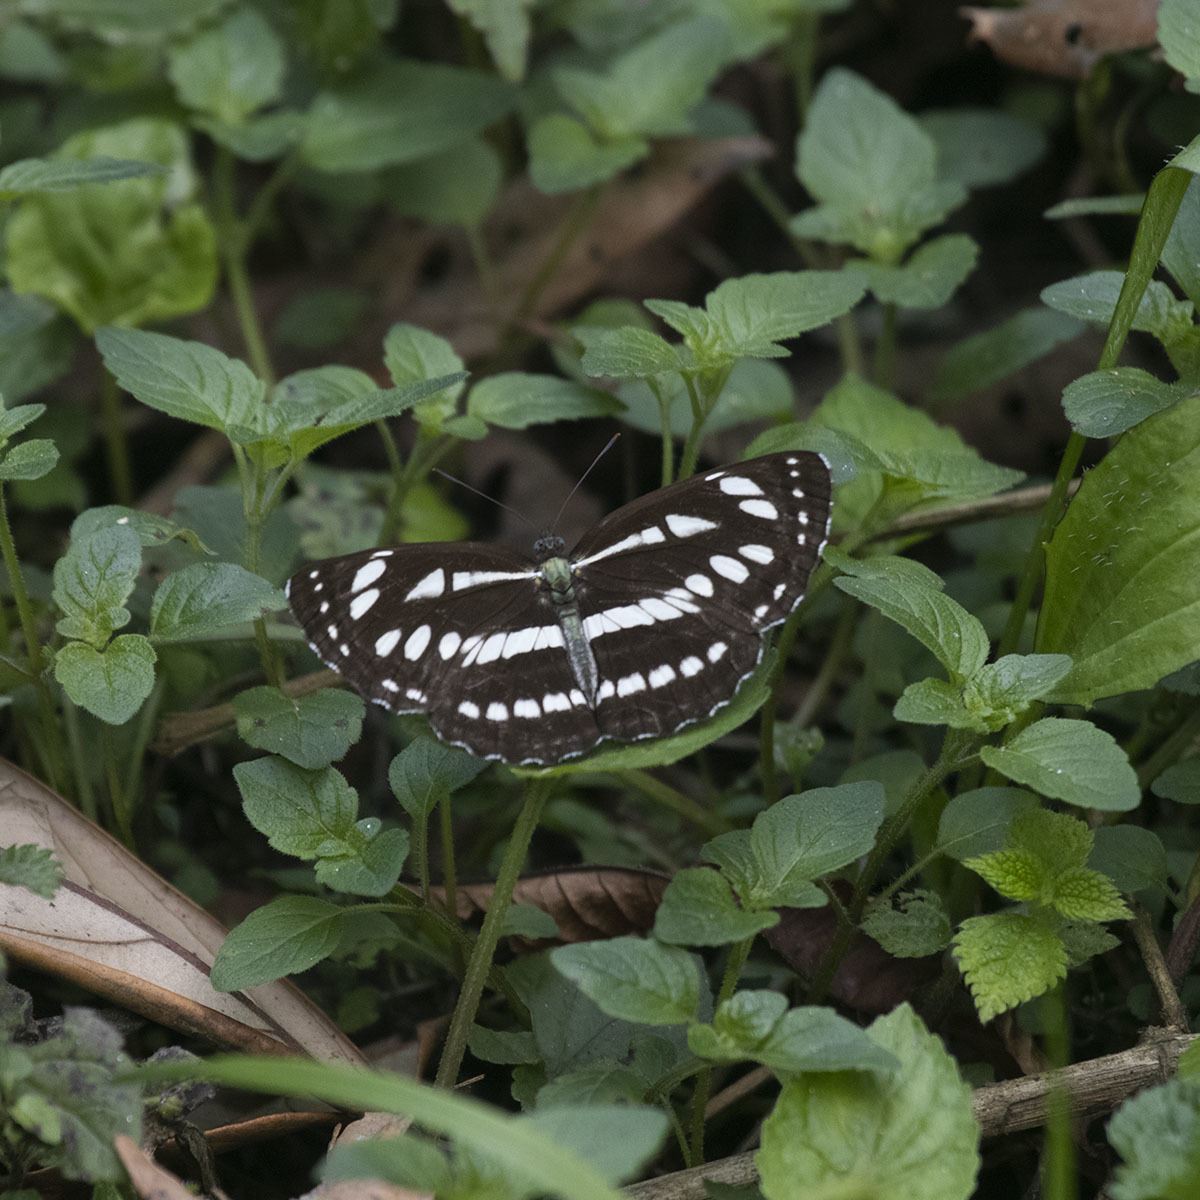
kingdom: Animalia
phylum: Arthropoda
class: Insecta
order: Lepidoptera
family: Nymphalidae
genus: Neptis
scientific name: Neptis hylas
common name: Common sailer
